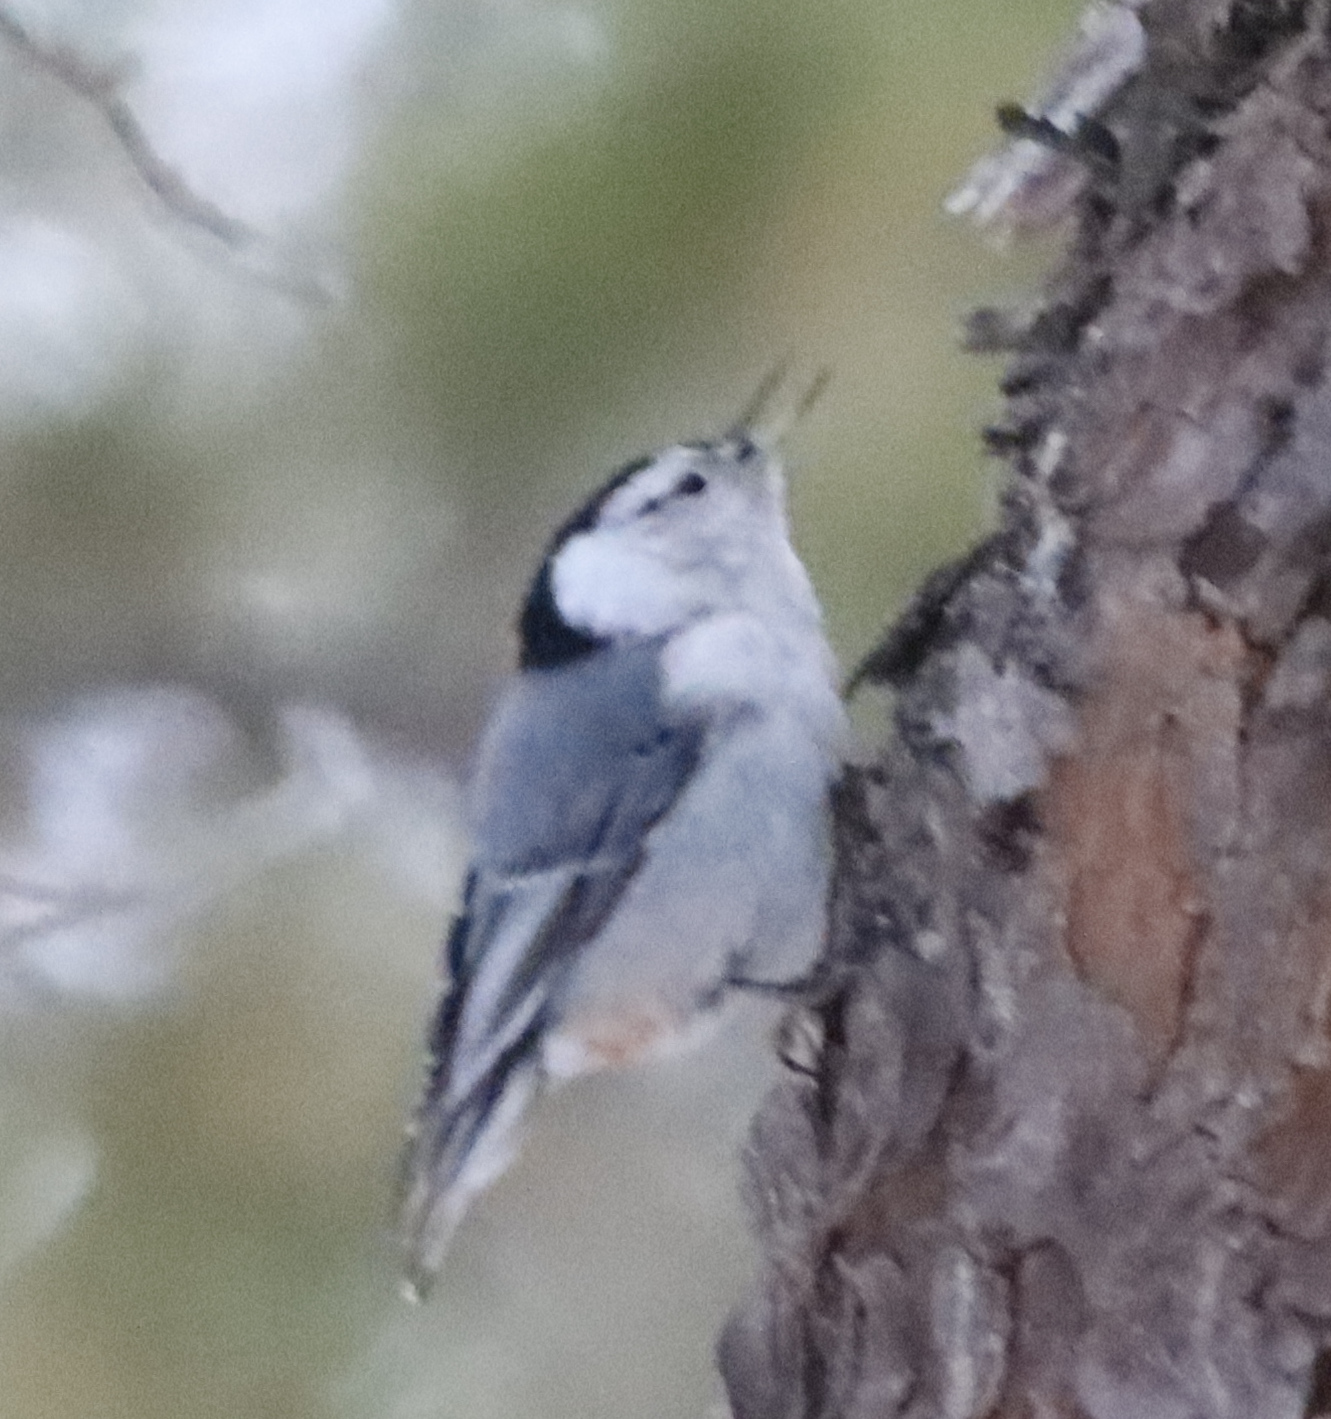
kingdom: Animalia
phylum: Chordata
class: Aves
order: Passeriformes
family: Sittidae
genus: Sitta
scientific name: Sitta carolinensis
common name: White-breasted nuthatch
